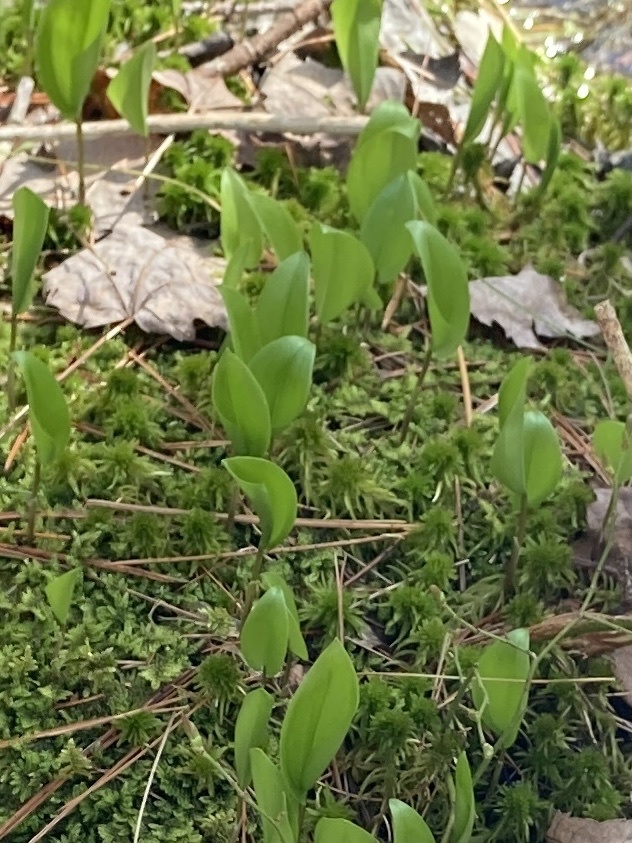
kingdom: Plantae
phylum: Tracheophyta
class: Liliopsida
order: Asparagales
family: Asparagaceae
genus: Maianthemum
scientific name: Maianthemum canadense
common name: False lily-of-the-valley
